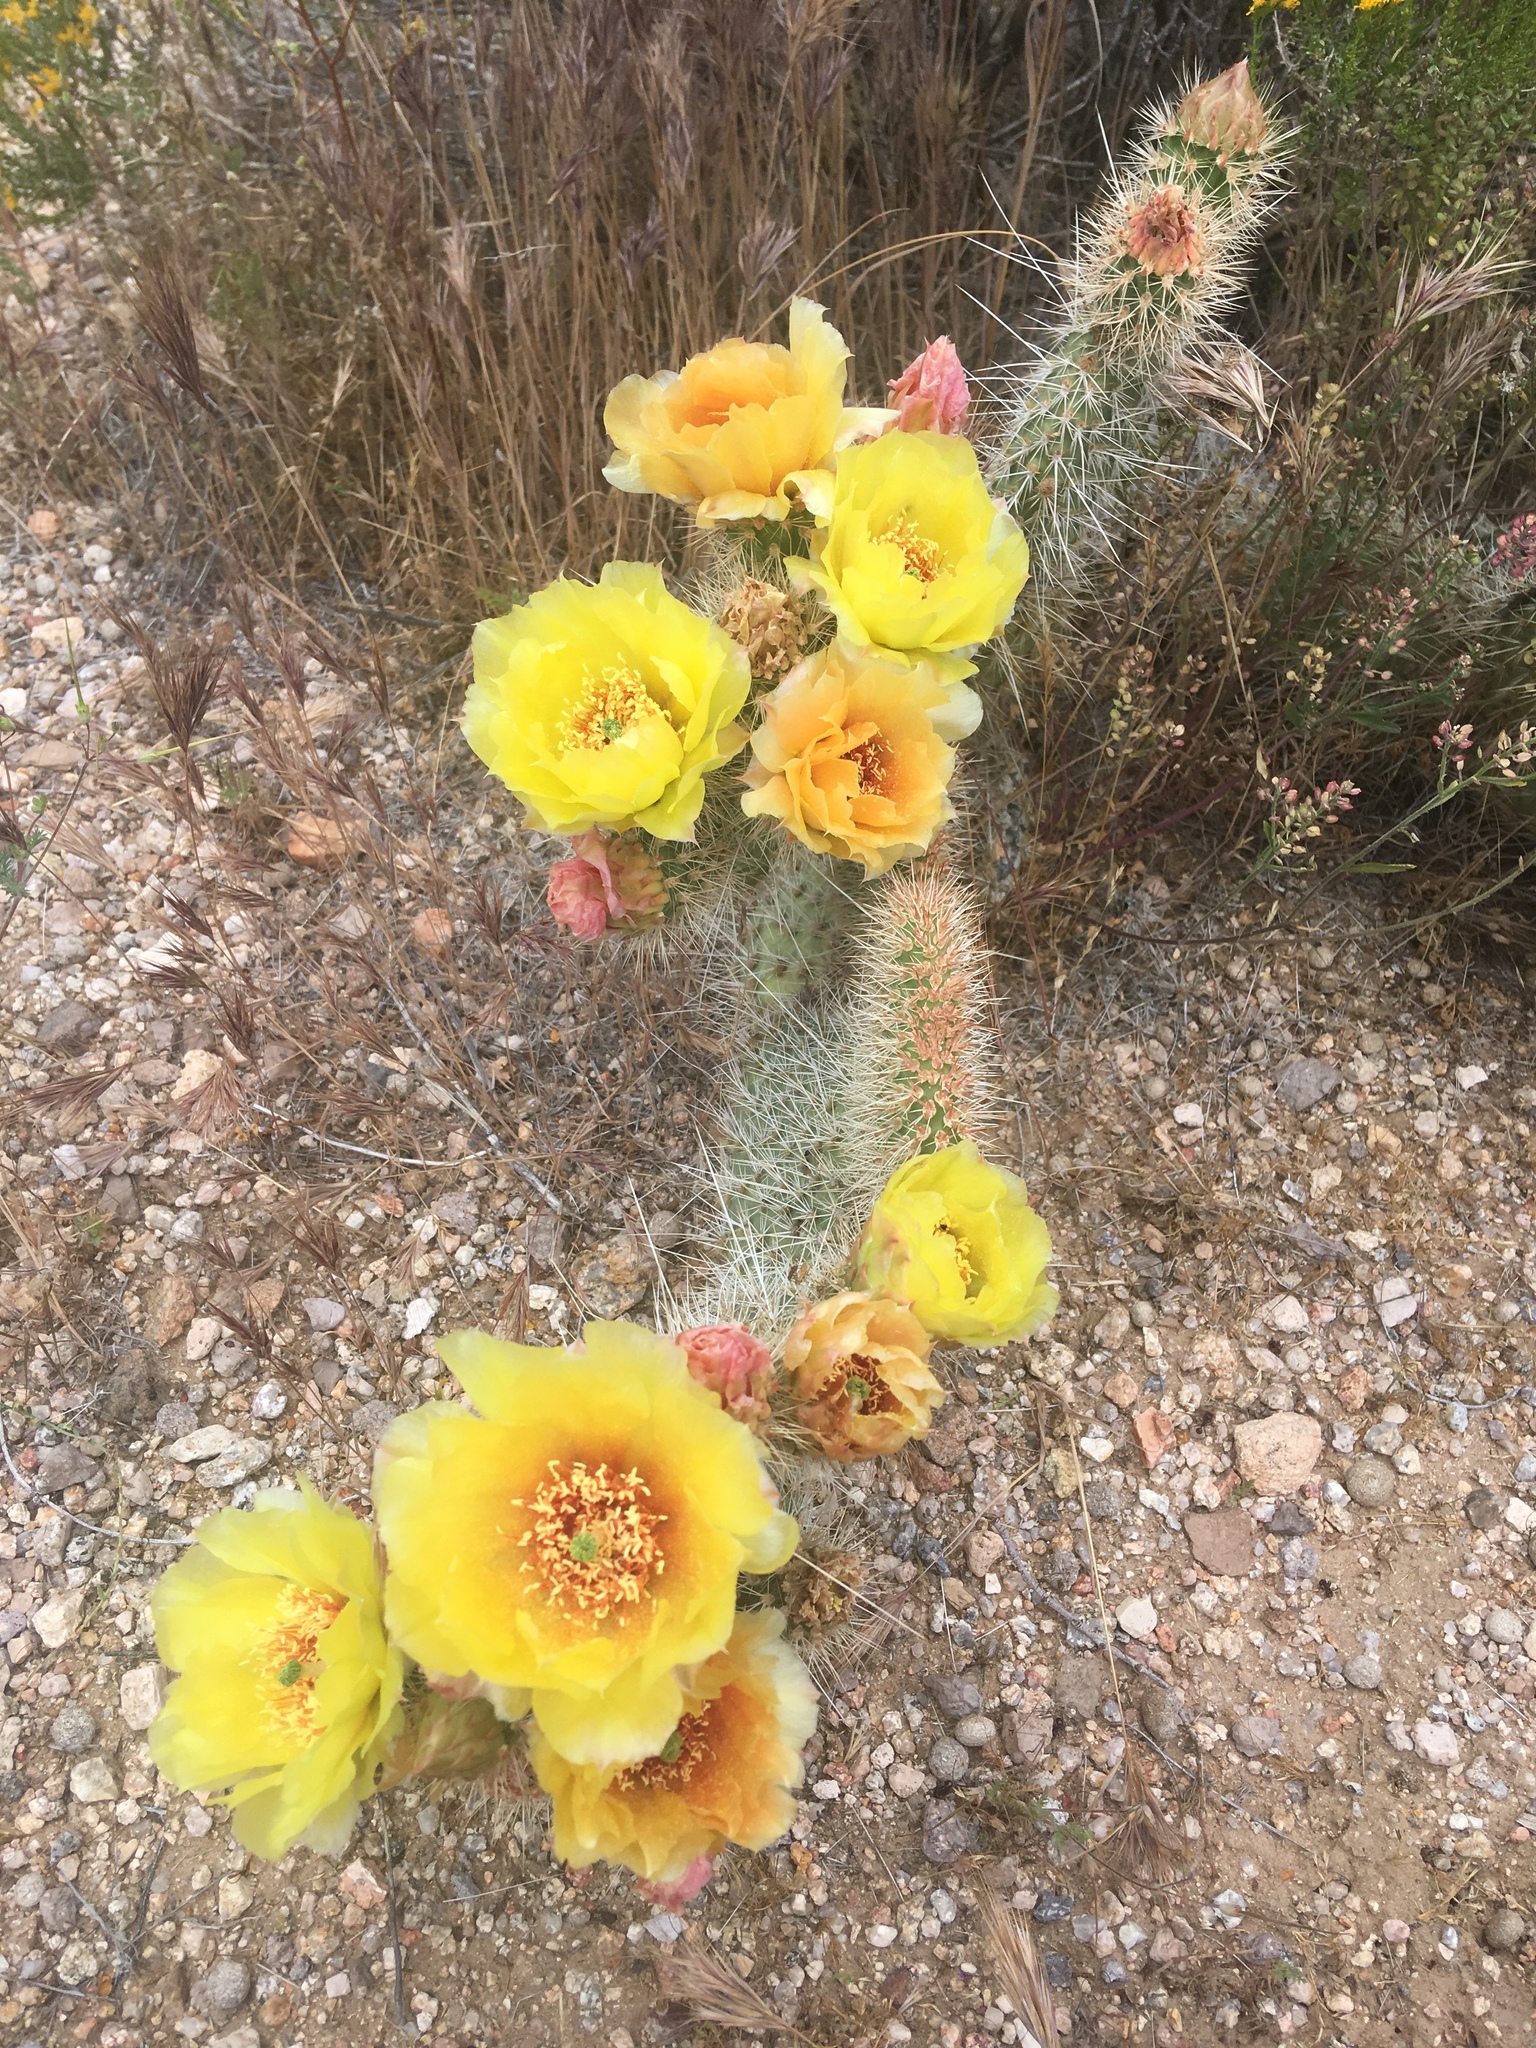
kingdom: Plantae
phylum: Tracheophyta
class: Magnoliopsida
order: Caryophyllales
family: Cactaceae
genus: Opuntia
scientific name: Opuntia polyacantha
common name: Plains prickly-pear
